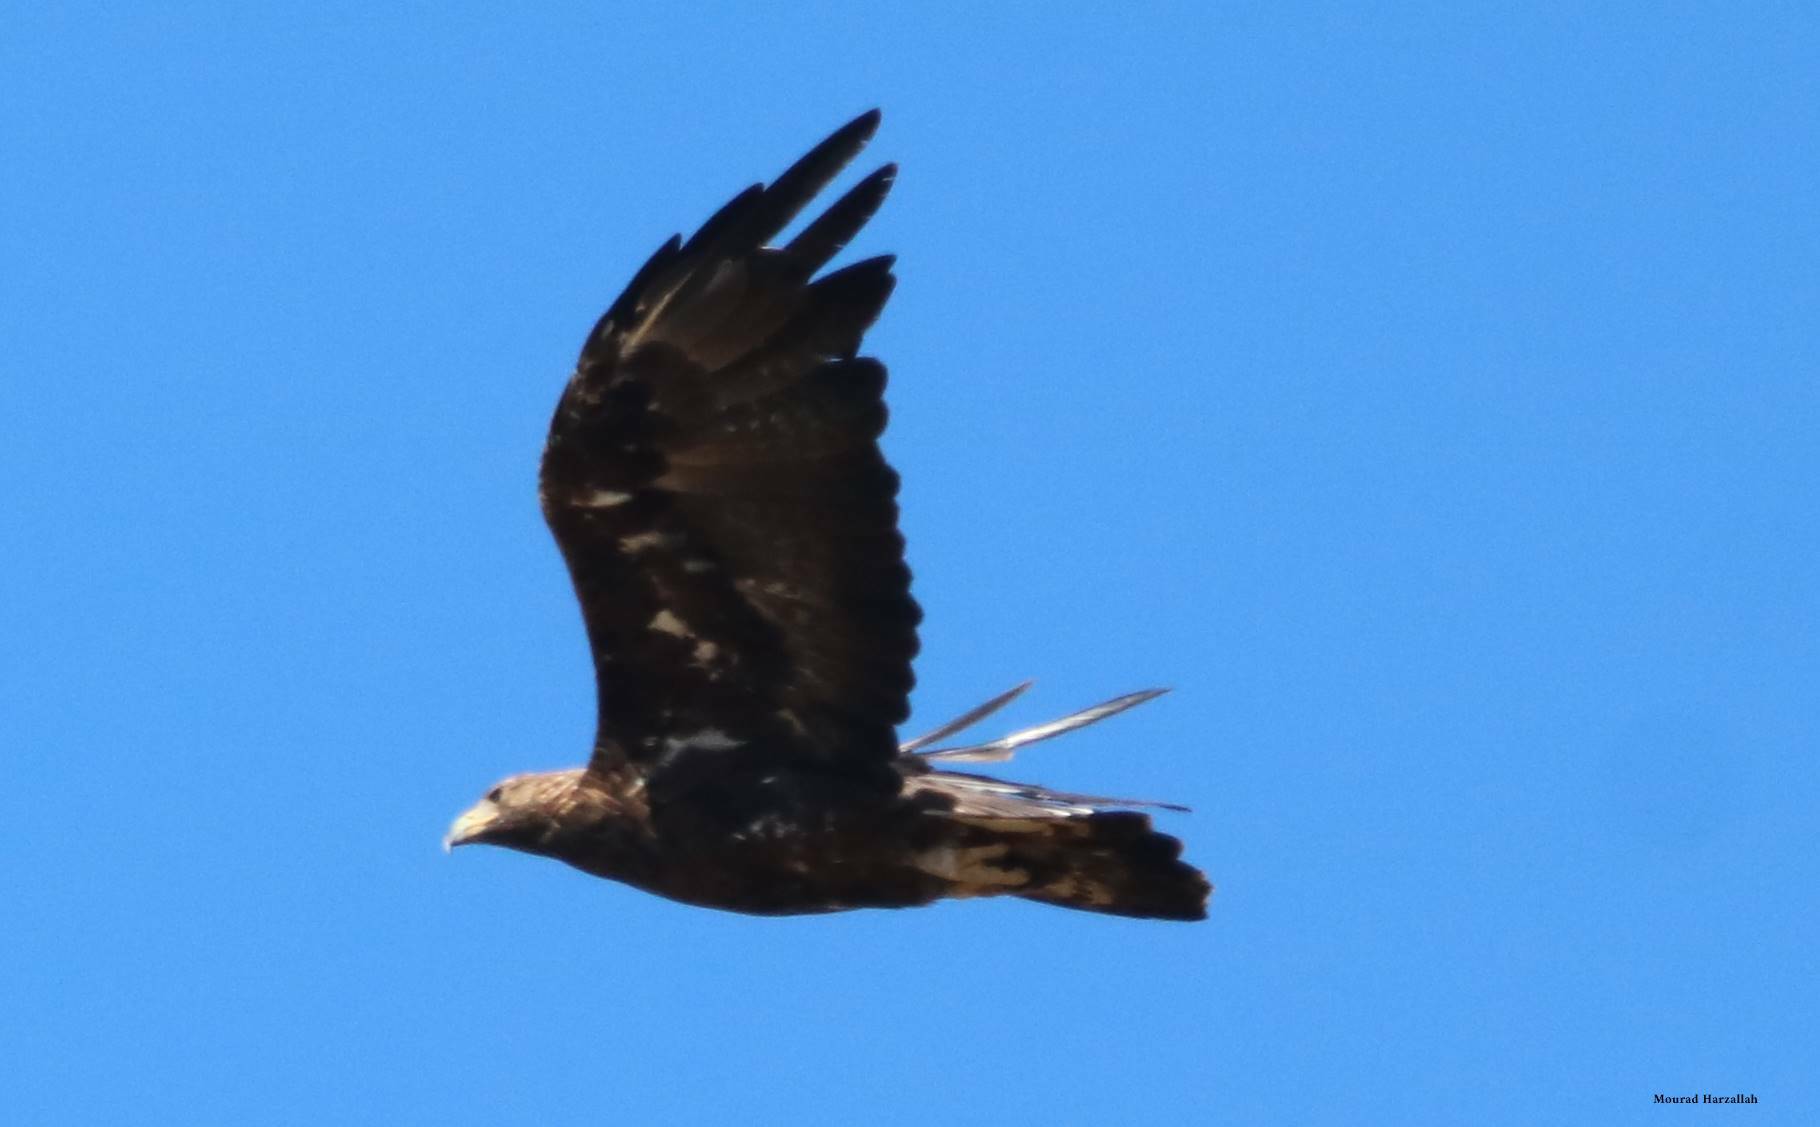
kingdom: Animalia
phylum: Chordata
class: Aves
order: Accipitriformes
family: Accipitridae
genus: Aquila
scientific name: Aquila chrysaetos
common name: Golden eagle
